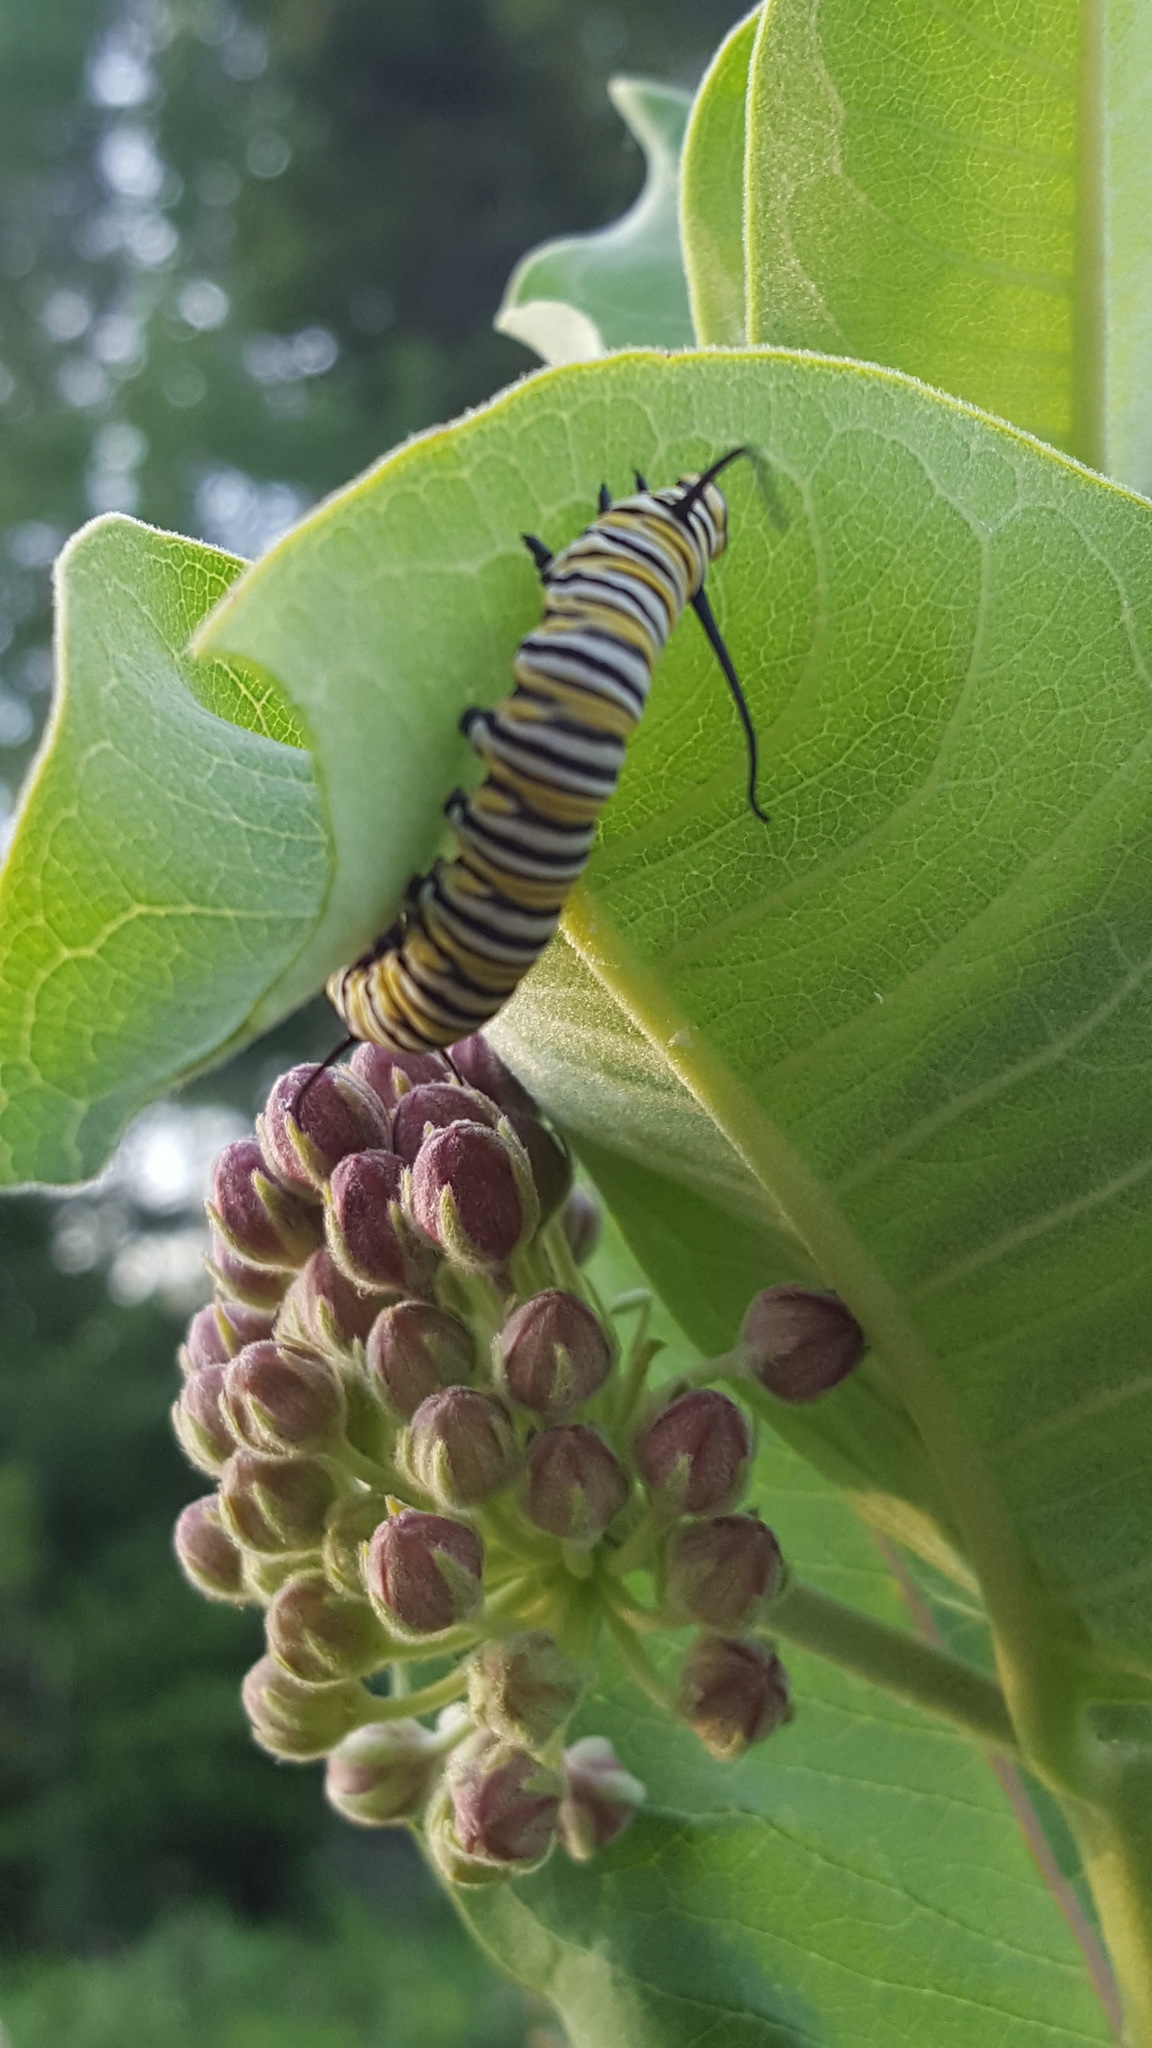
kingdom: Animalia
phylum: Arthropoda
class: Insecta
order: Lepidoptera
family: Nymphalidae
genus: Danaus
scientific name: Danaus plexippus
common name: Monarch
